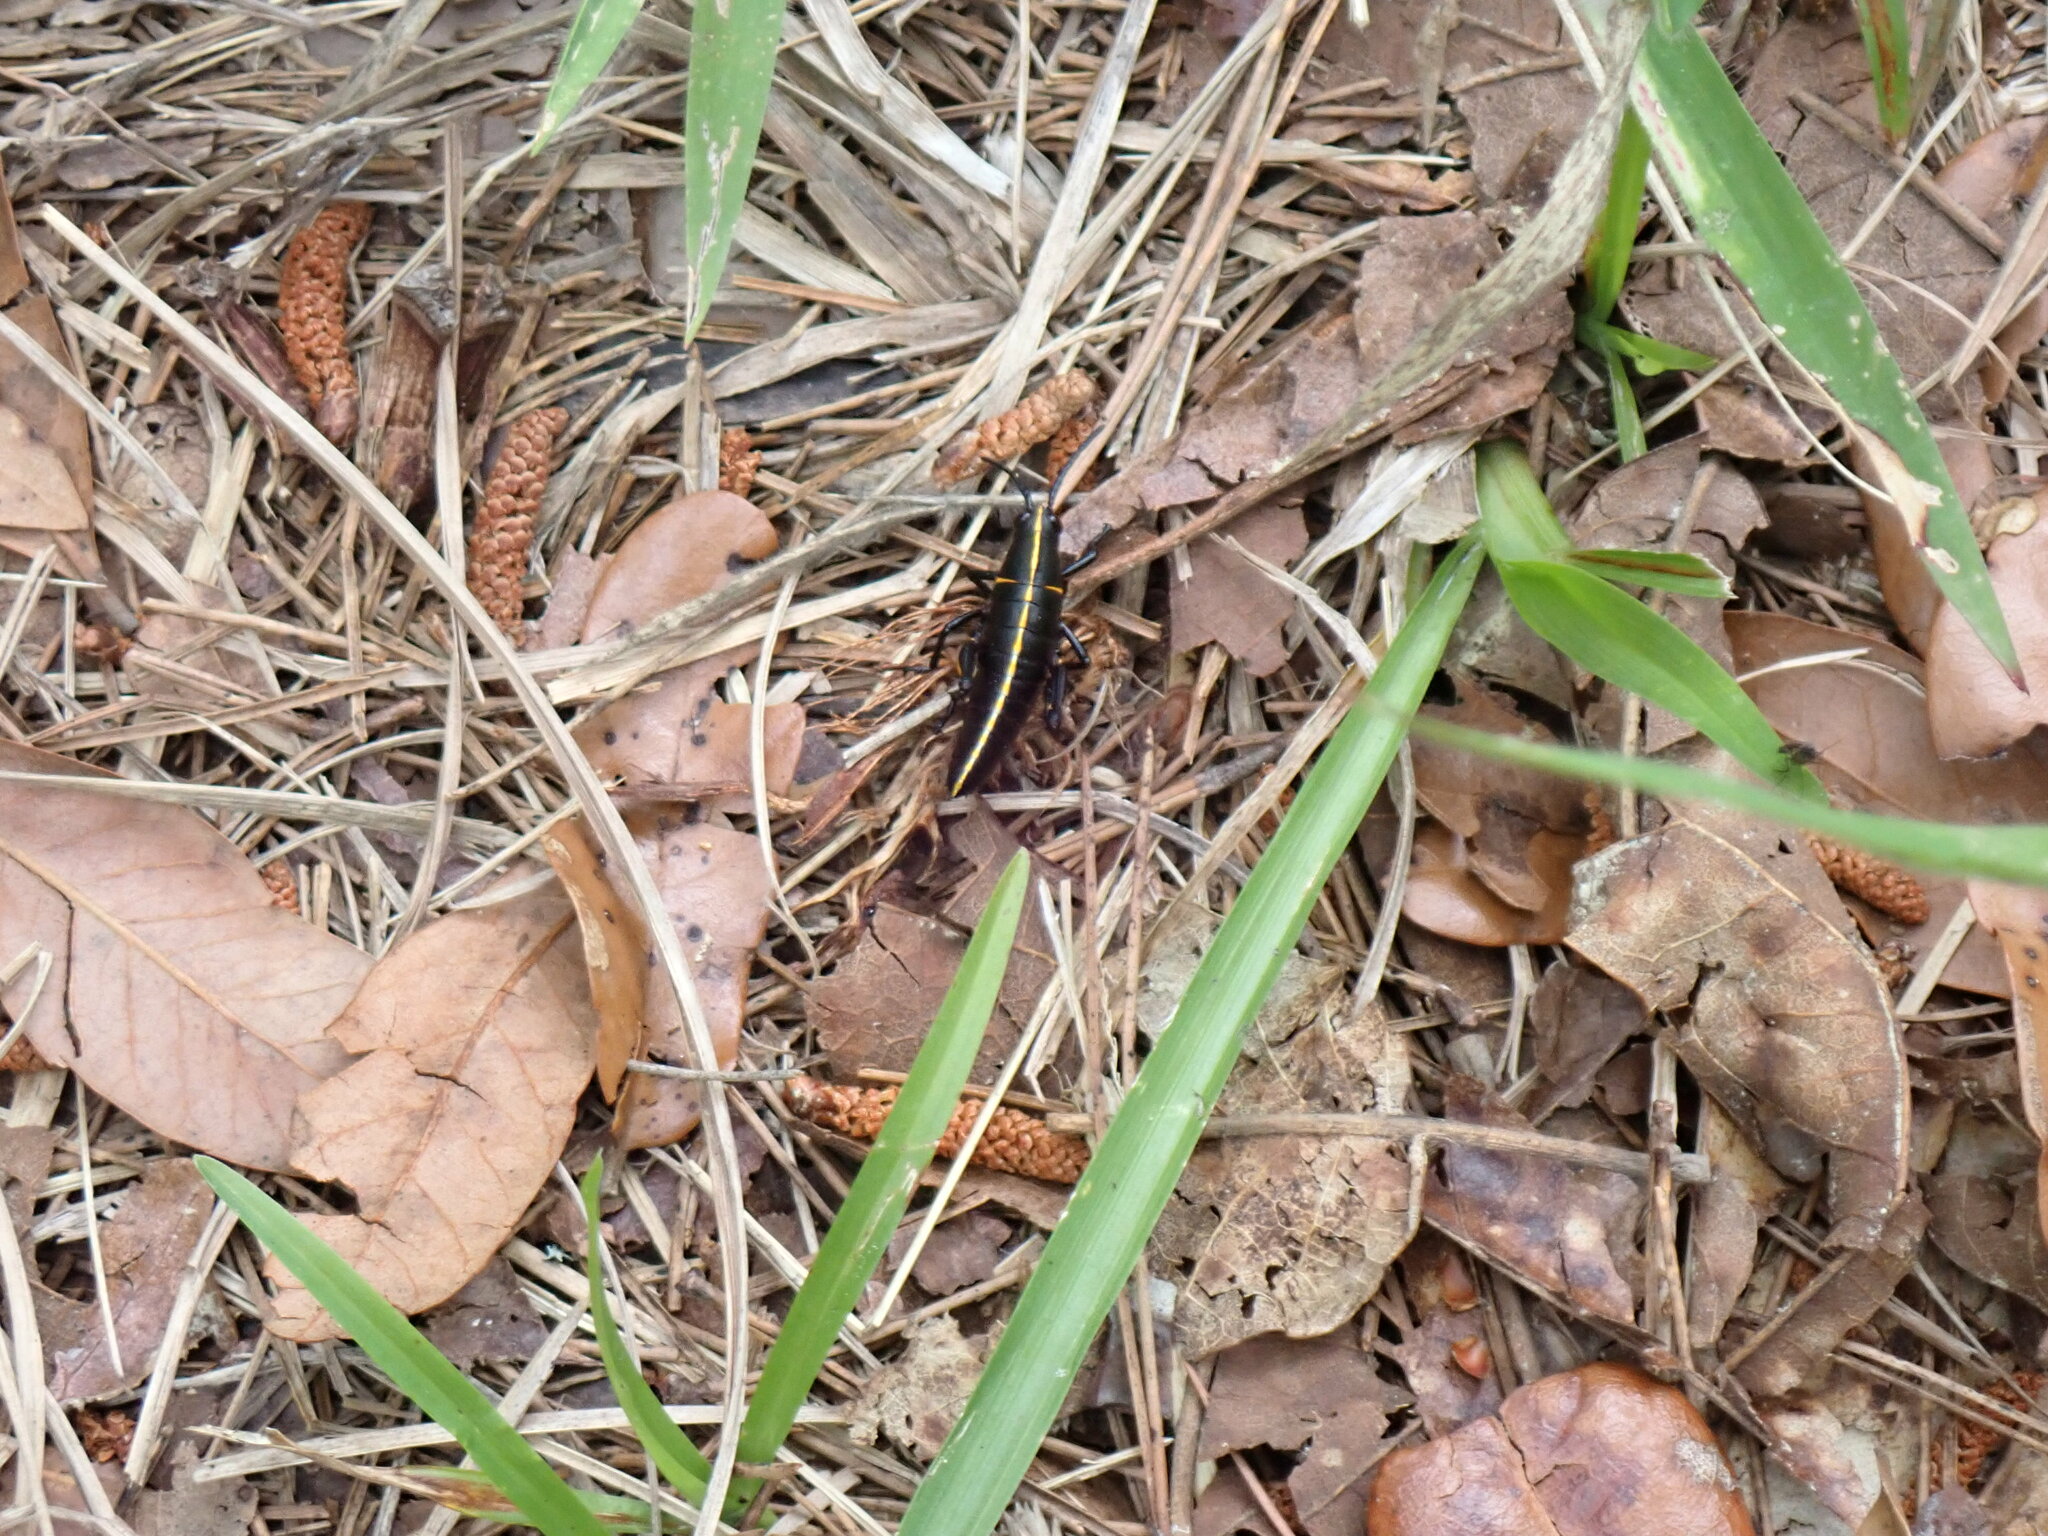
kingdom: Animalia
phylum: Arthropoda
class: Insecta
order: Orthoptera
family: Romaleidae
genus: Romalea
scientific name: Romalea microptera
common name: Eastern lubber grasshopper
